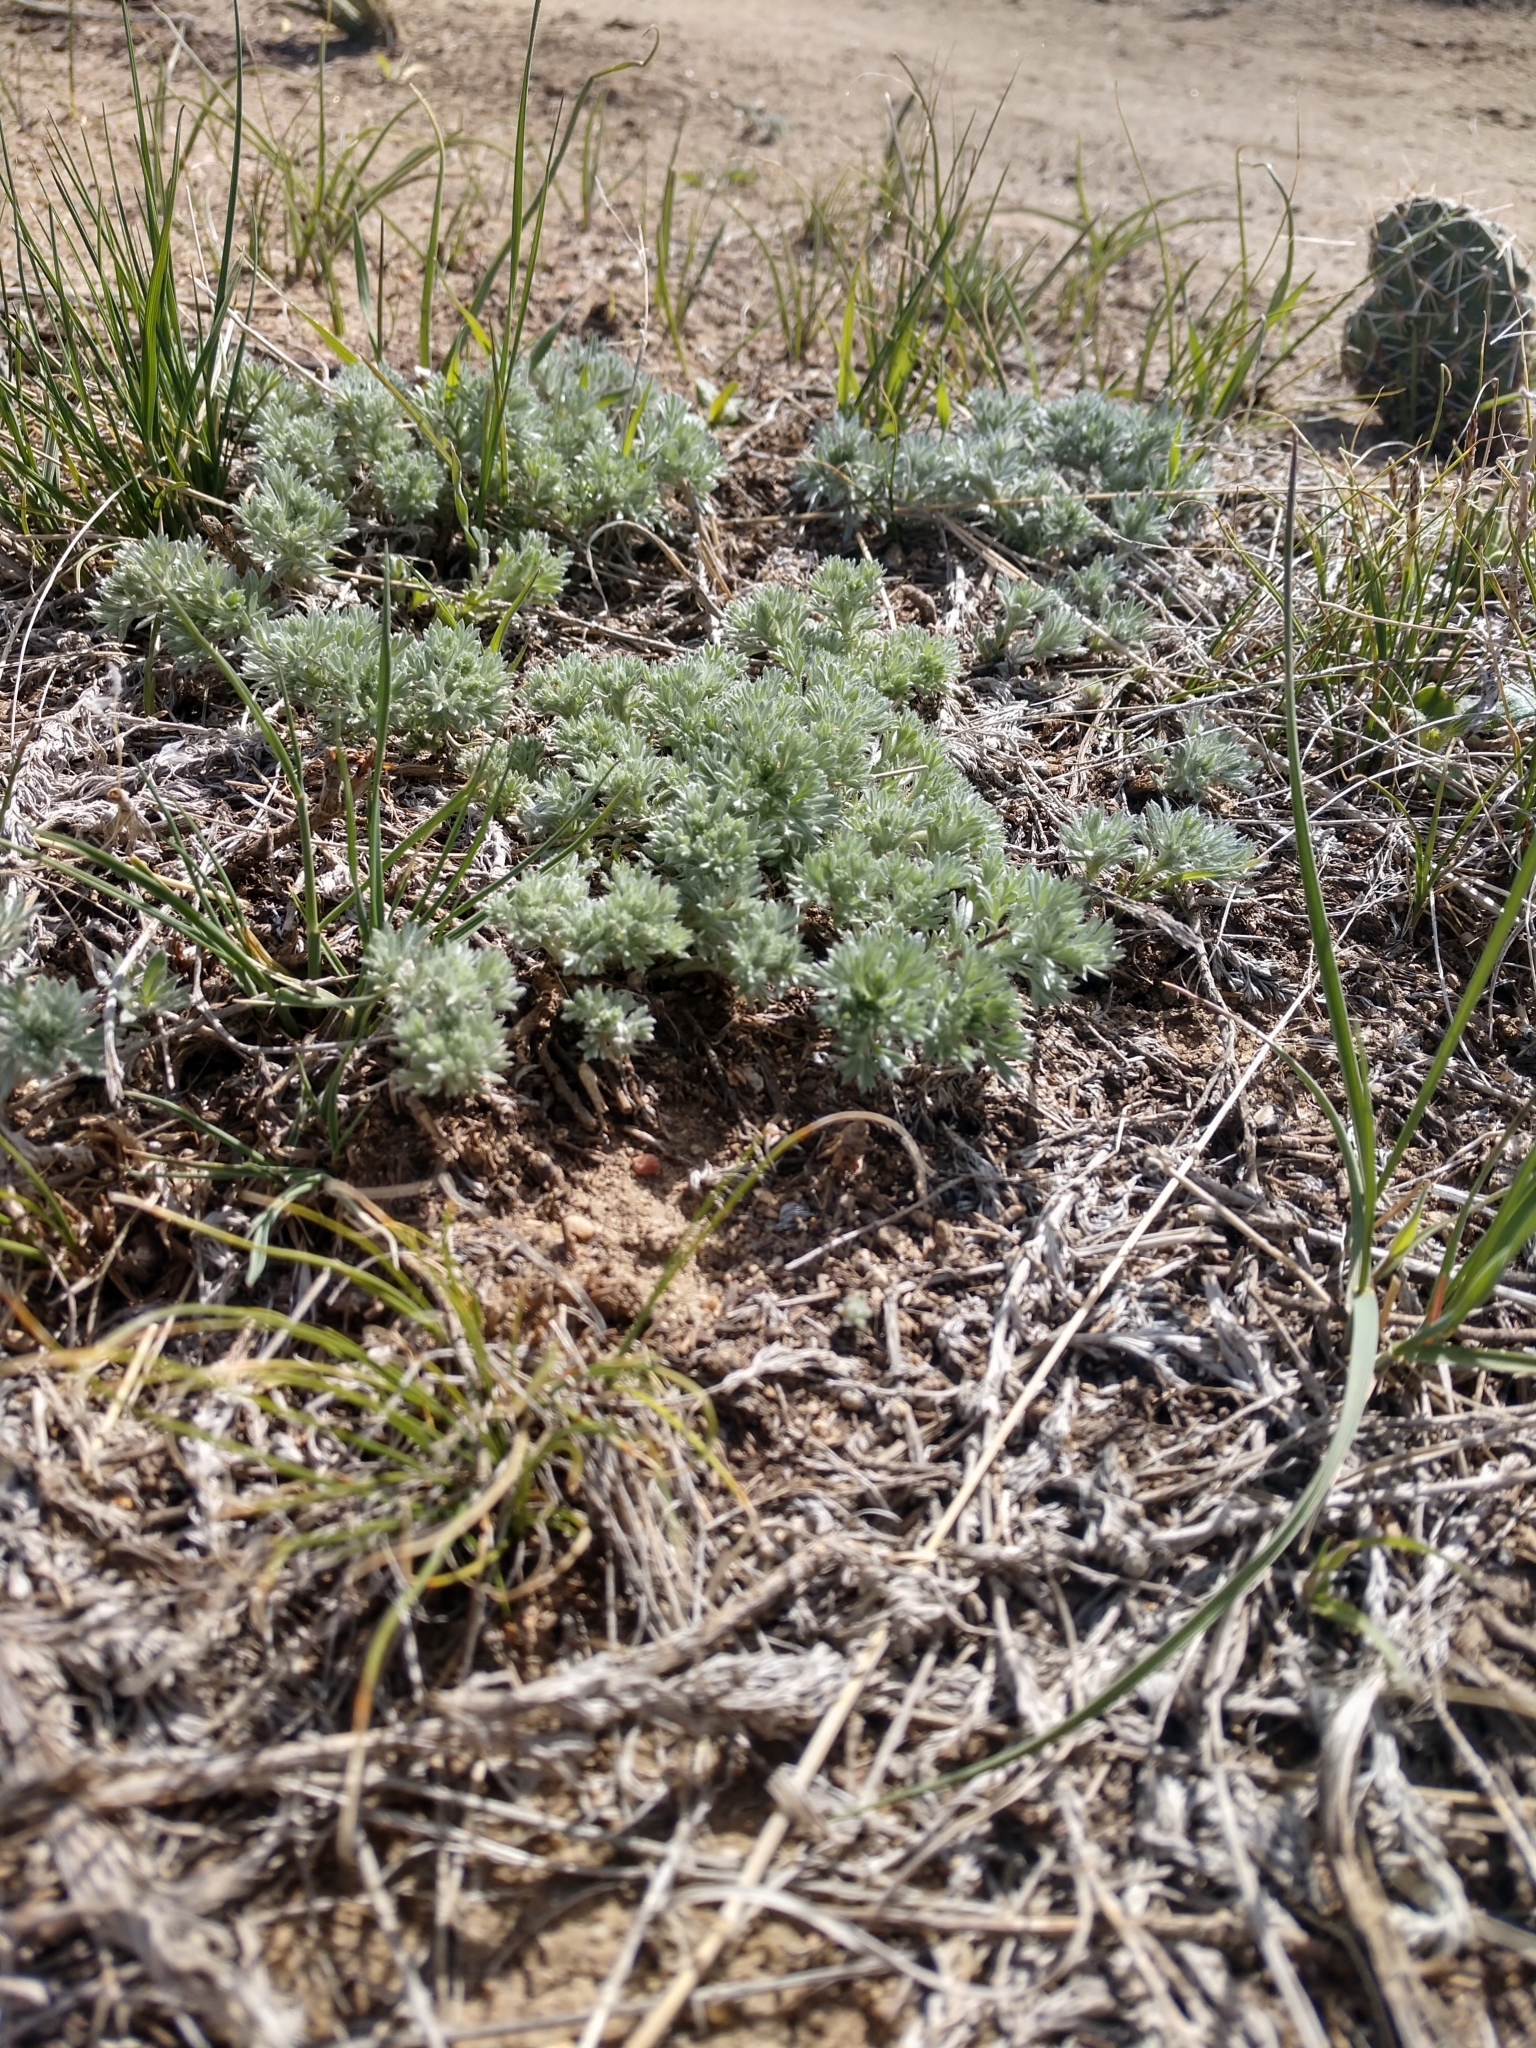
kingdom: Plantae
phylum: Tracheophyta
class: Magnoliopsida
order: Asterales
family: Asteraceae
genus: Artemisia
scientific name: Artemisia frigida
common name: Prairie sagewort
